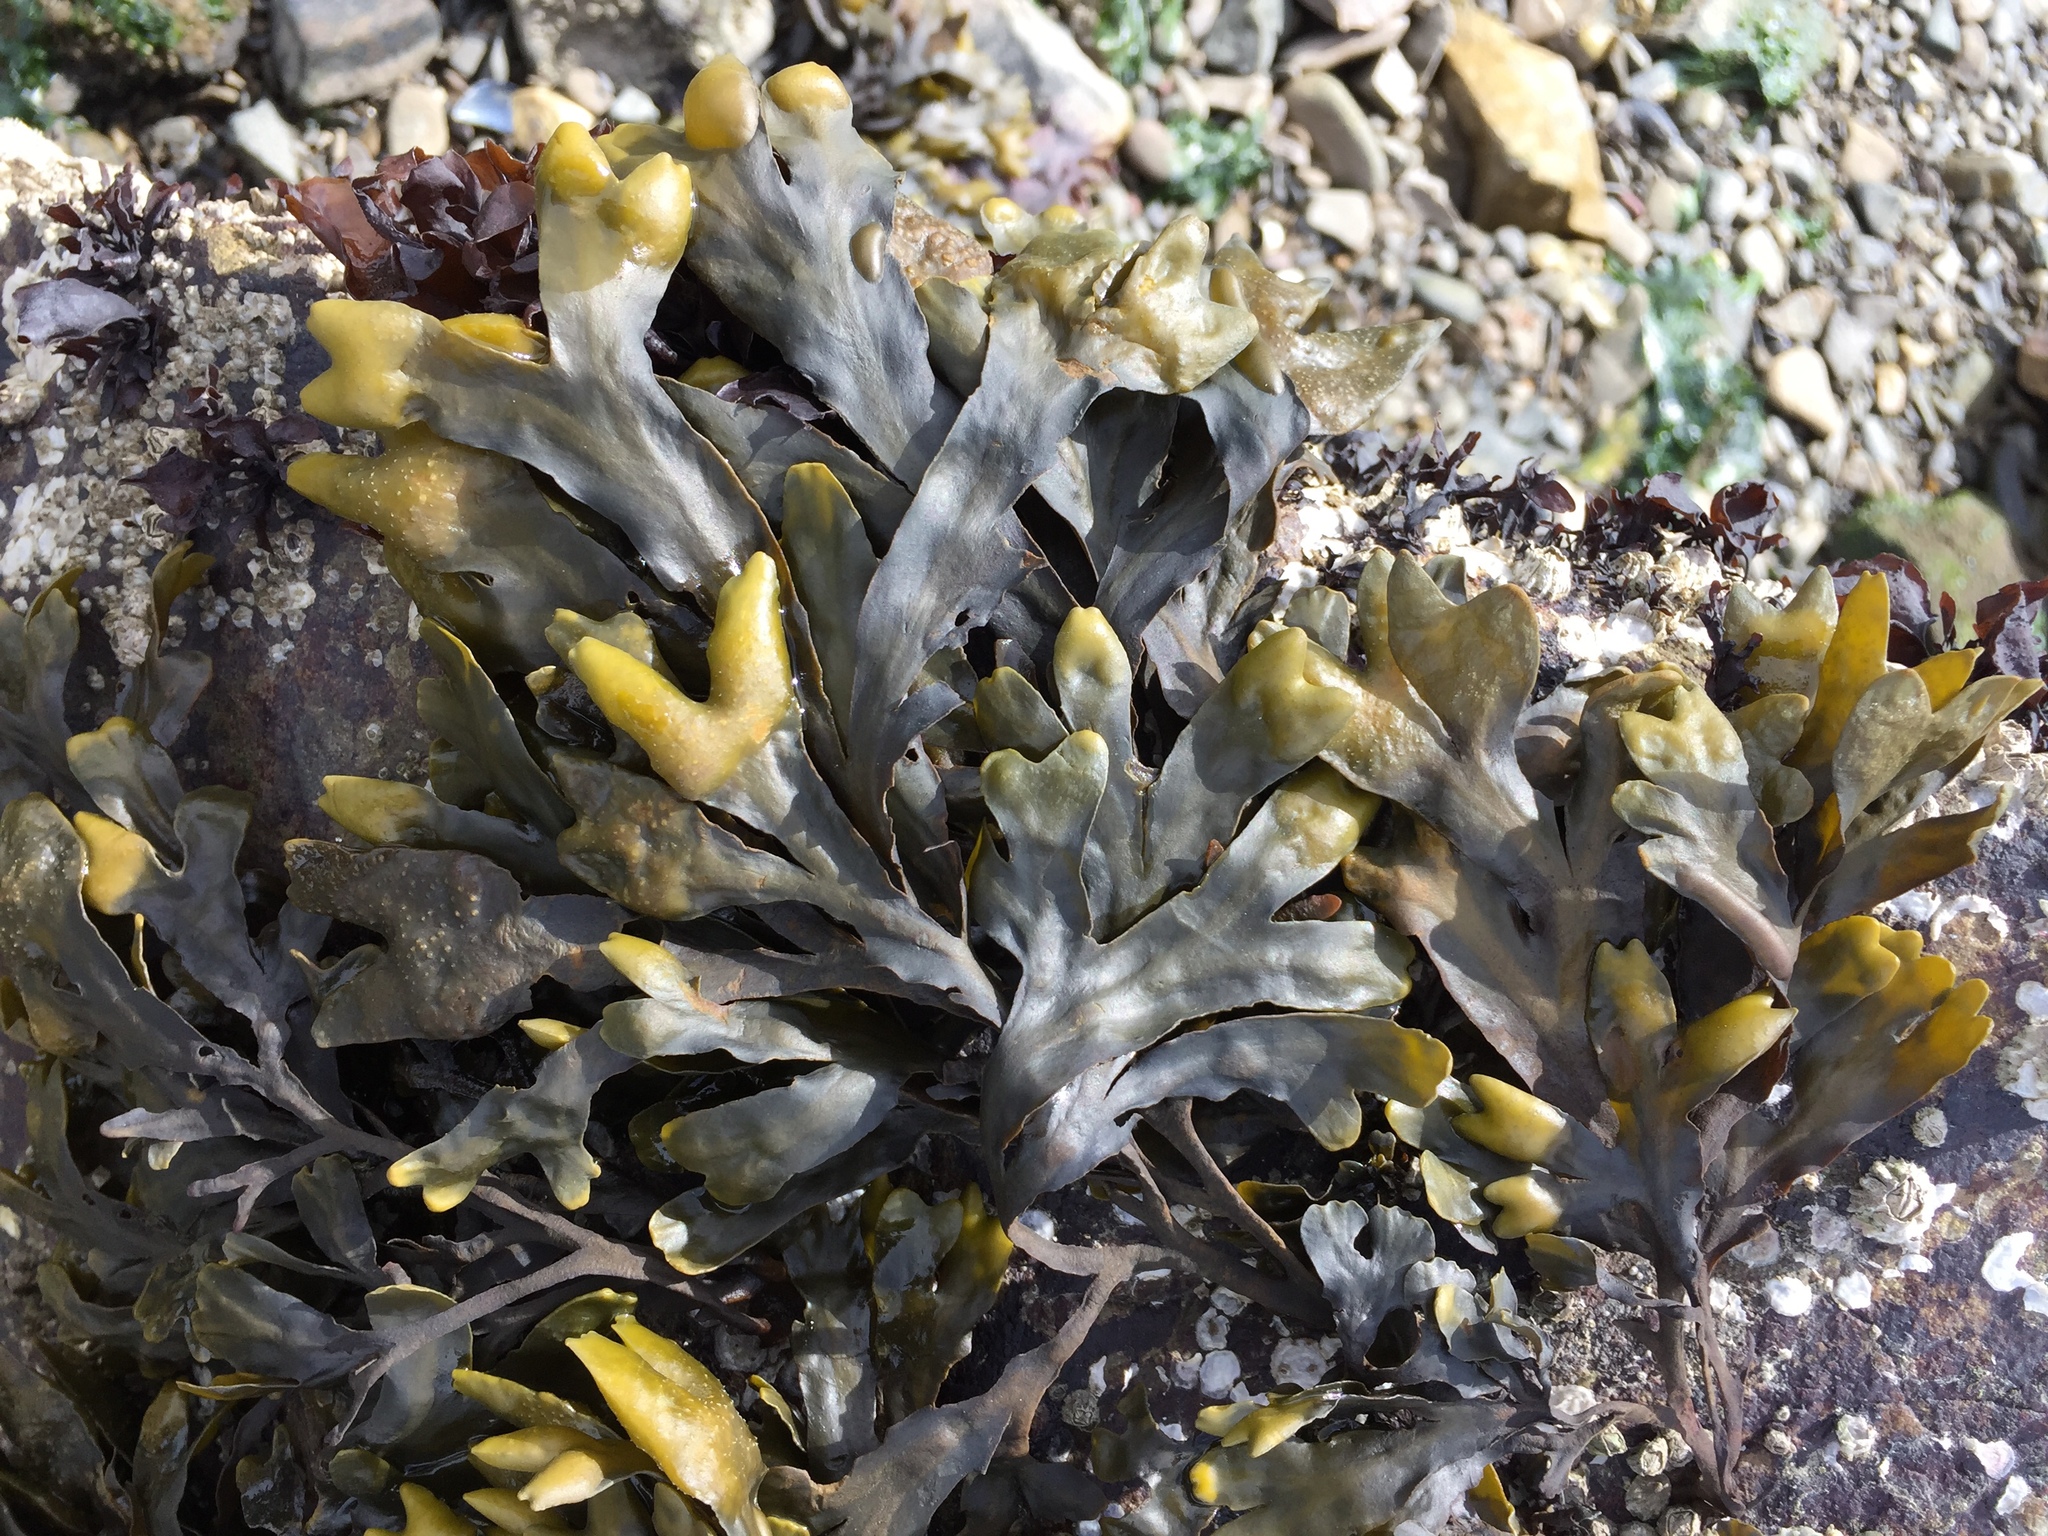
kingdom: Chromista
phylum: Ochrophyta
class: Phaeophyceae
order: Fucales
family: Fucaceae
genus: Fucus
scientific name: Fucus distichus
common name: Rockweed
